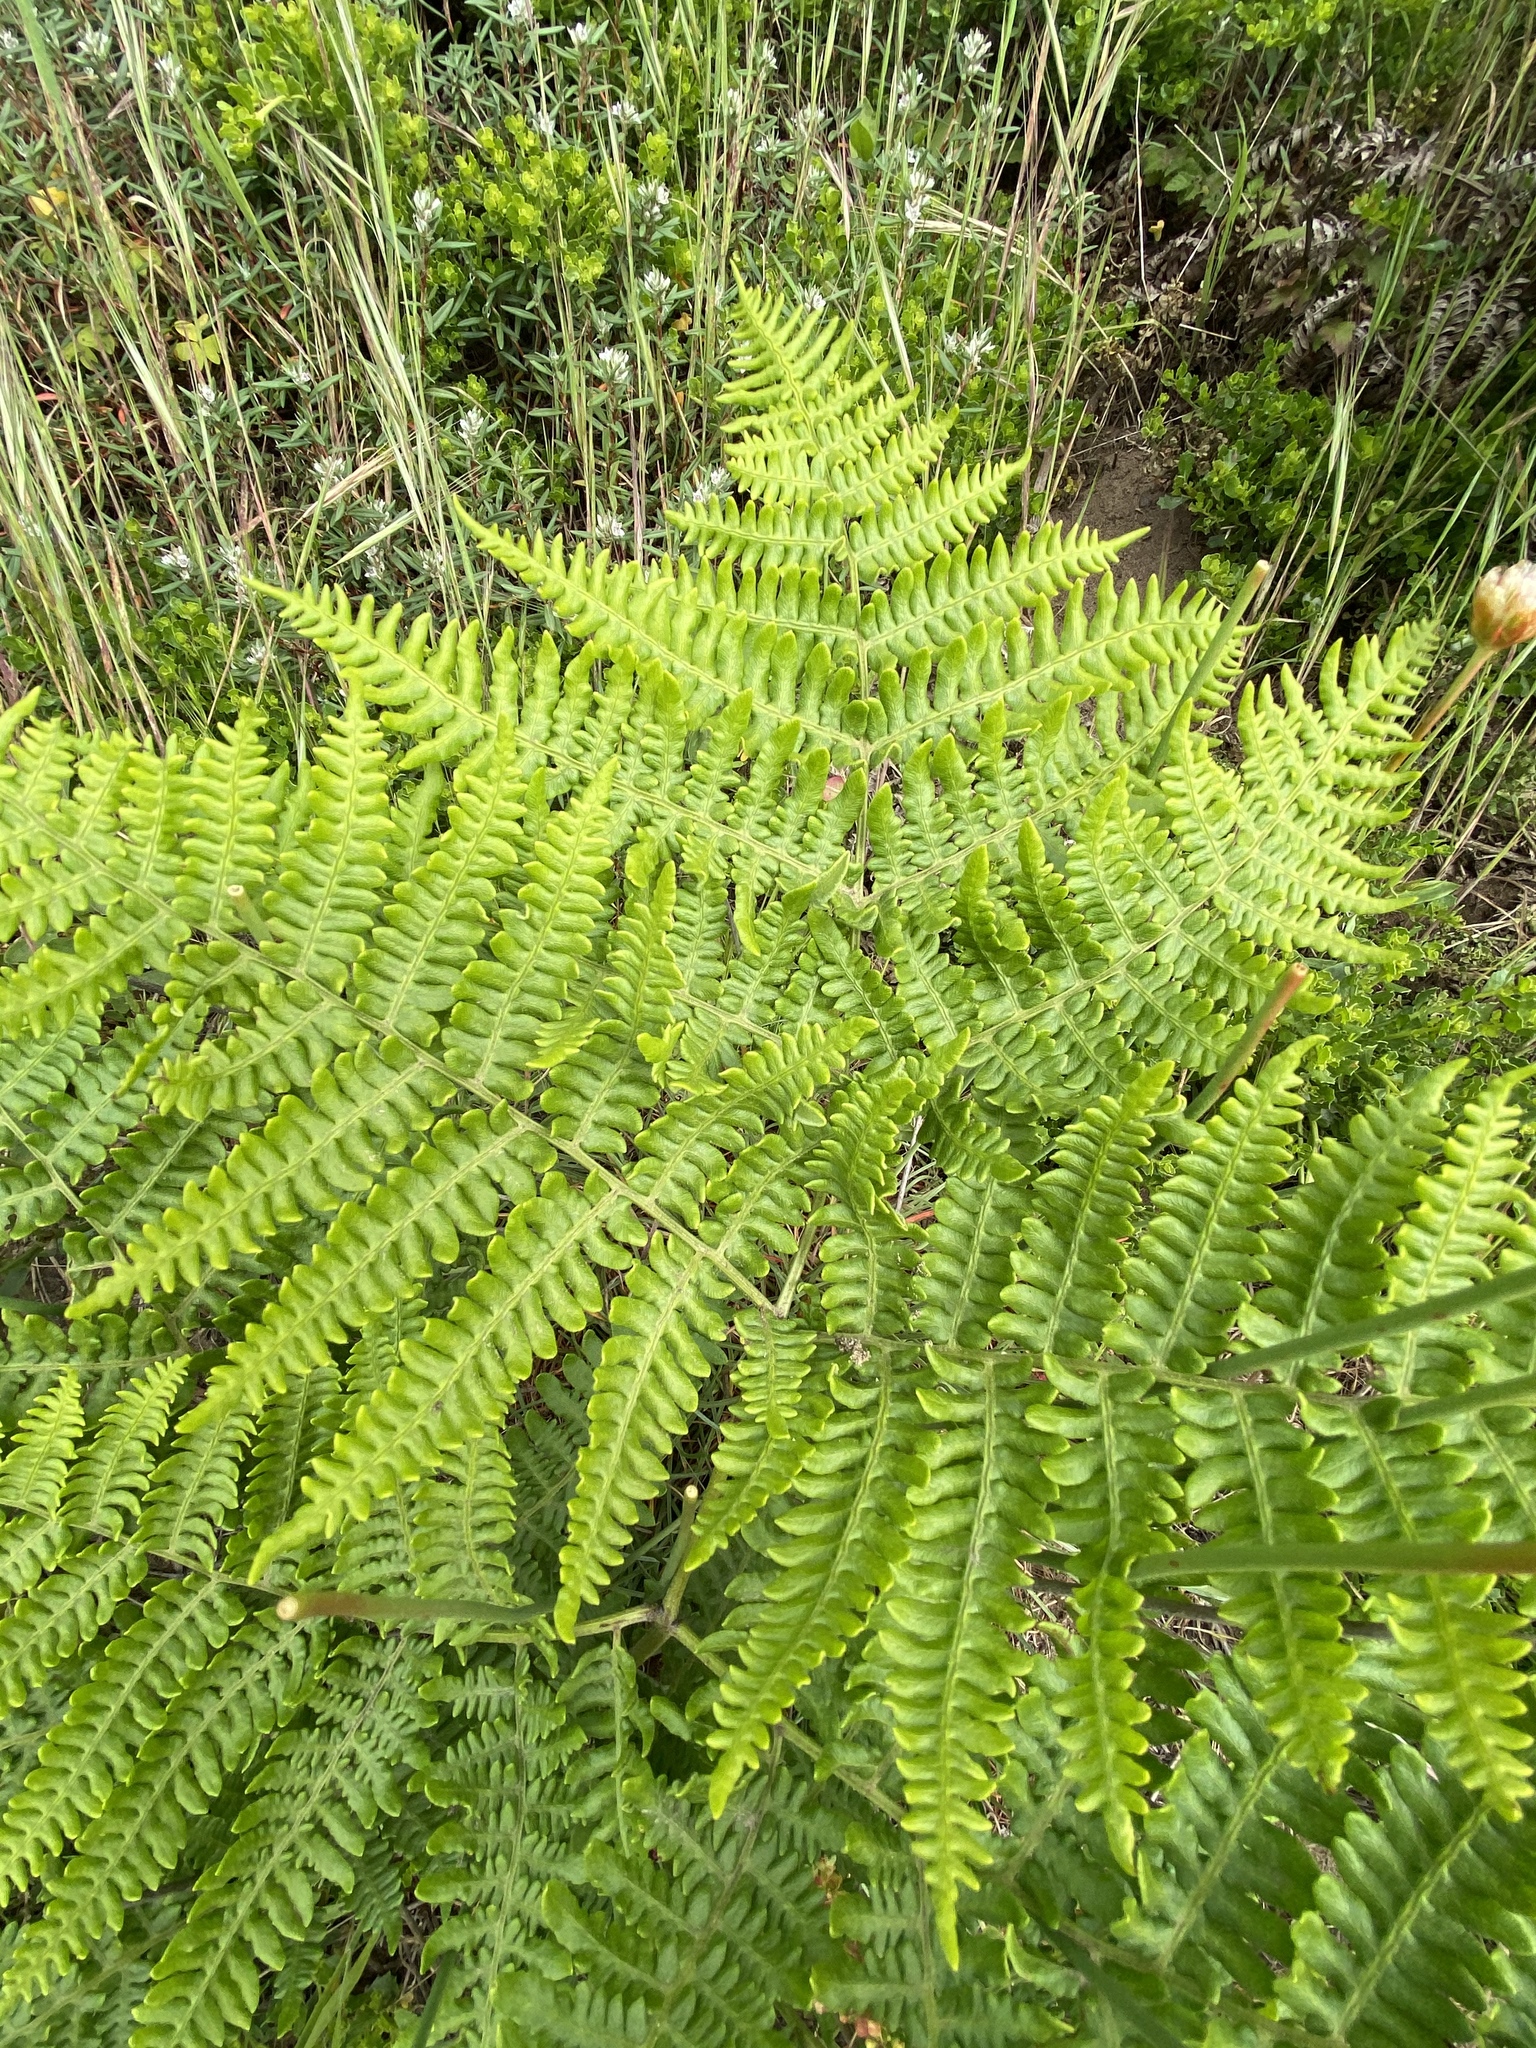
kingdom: Plantae
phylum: Tracheophyta
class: Polypodiopsida
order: Polypodiales
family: Dennstaedtiaceae
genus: Pteridium
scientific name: Pteridium aquilinum
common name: Bracken
